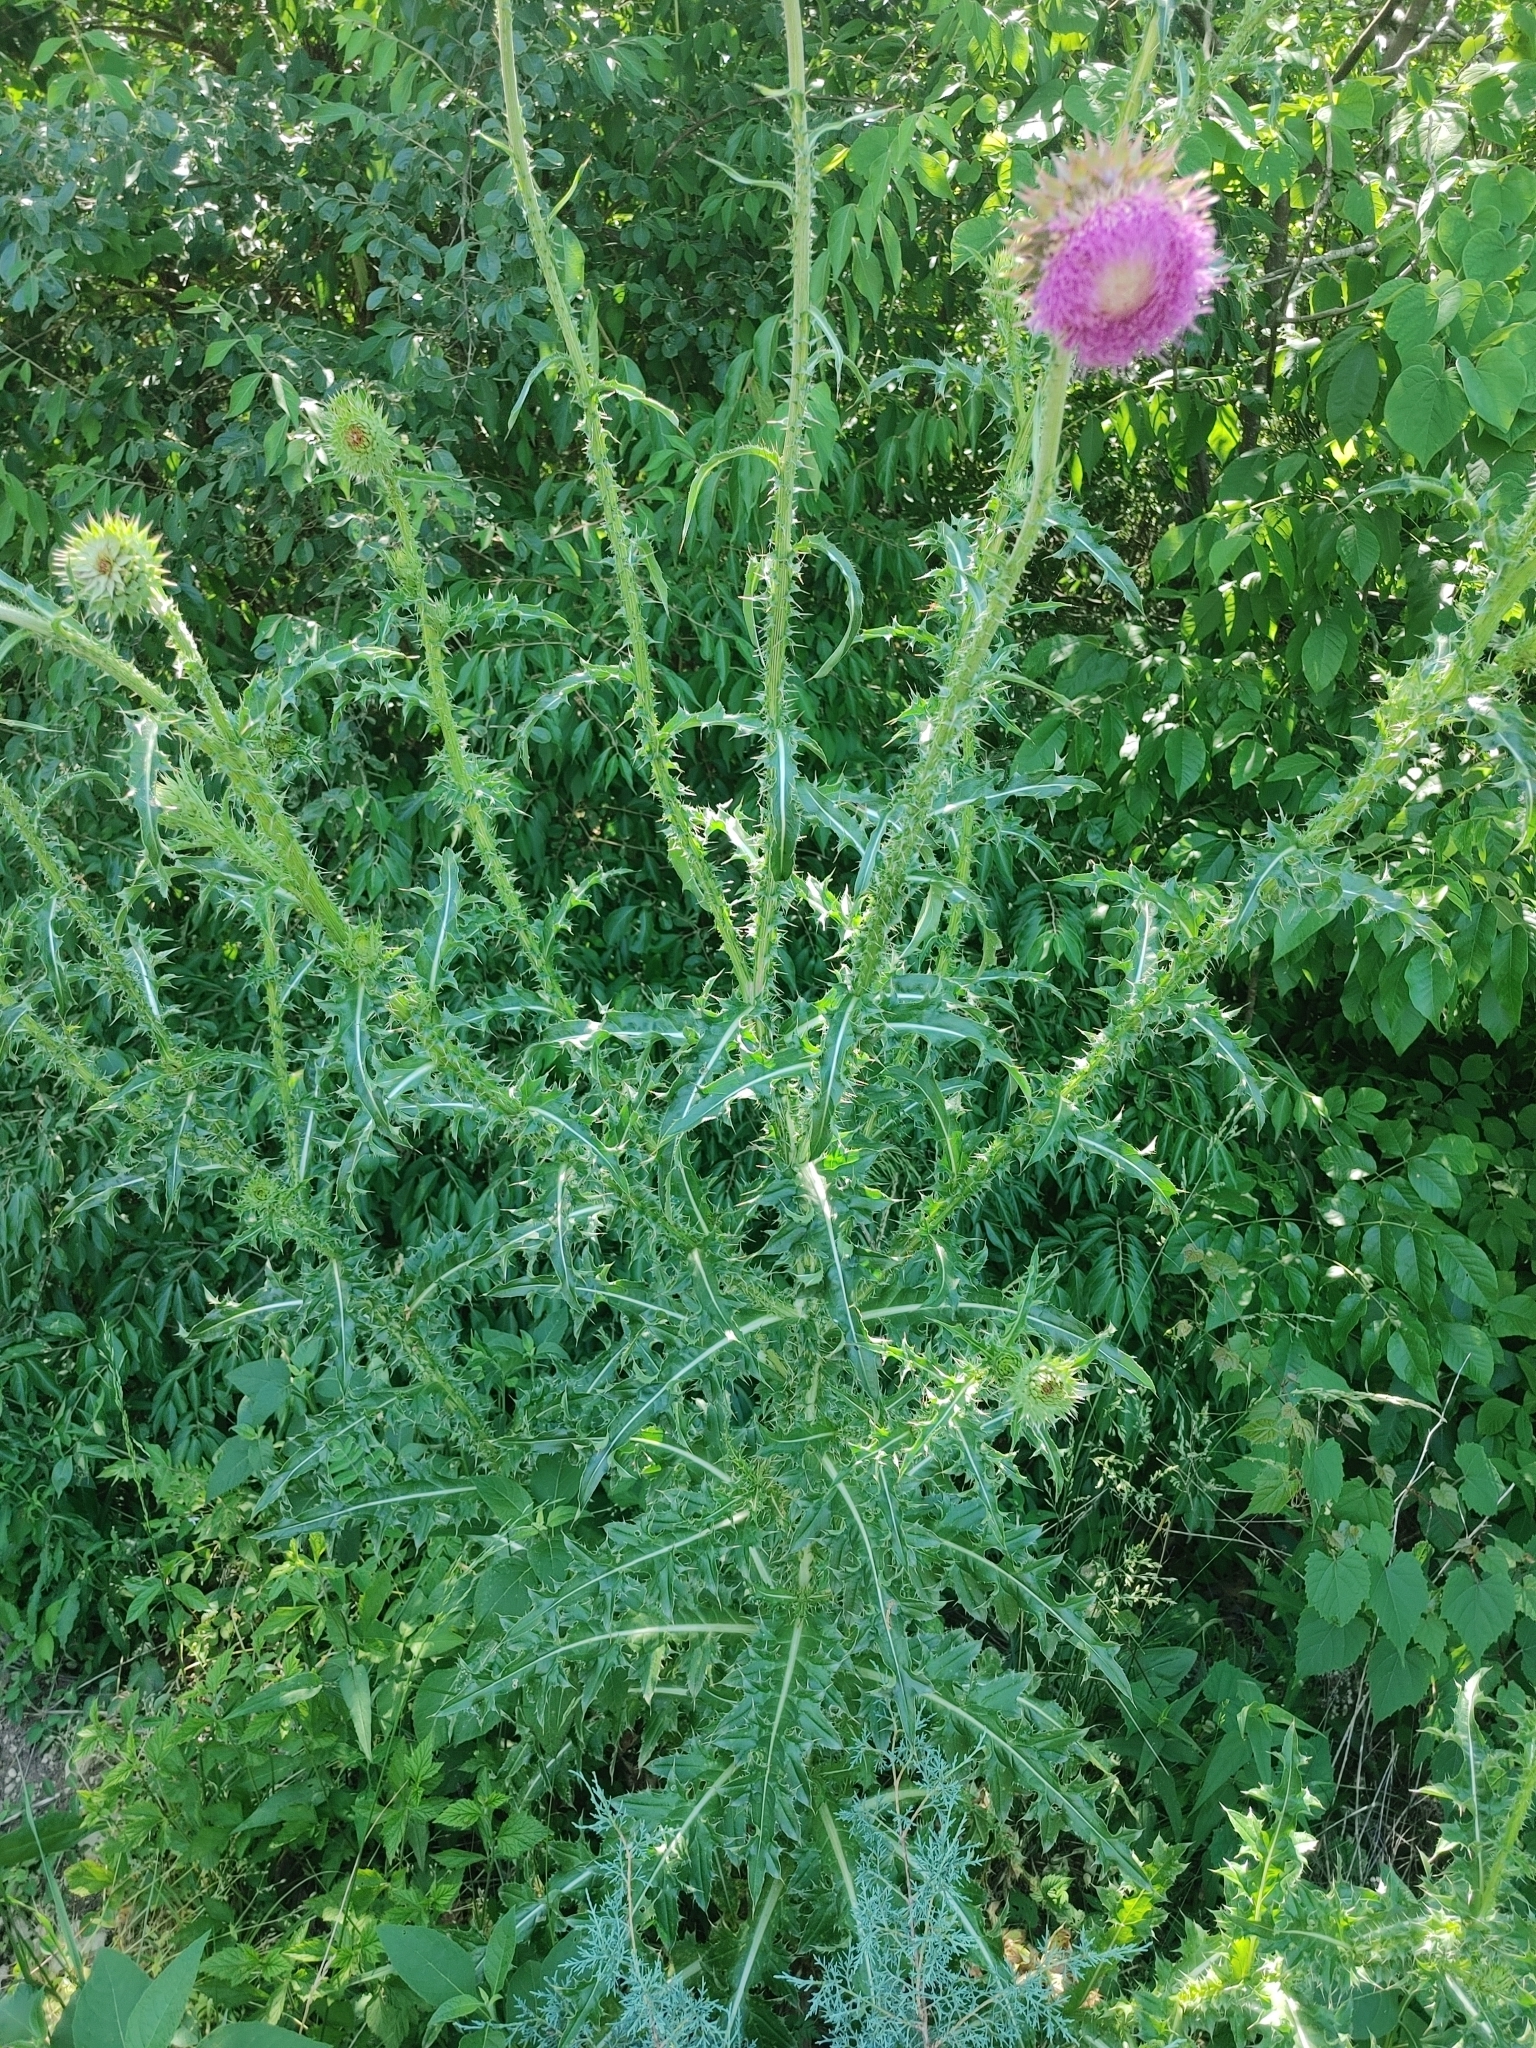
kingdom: Plantae
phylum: Tracheophyta
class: Magnoliopsida
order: Asterales
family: Asteraceae
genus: Carduus
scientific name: Carduus nutans
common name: Musk thistle
